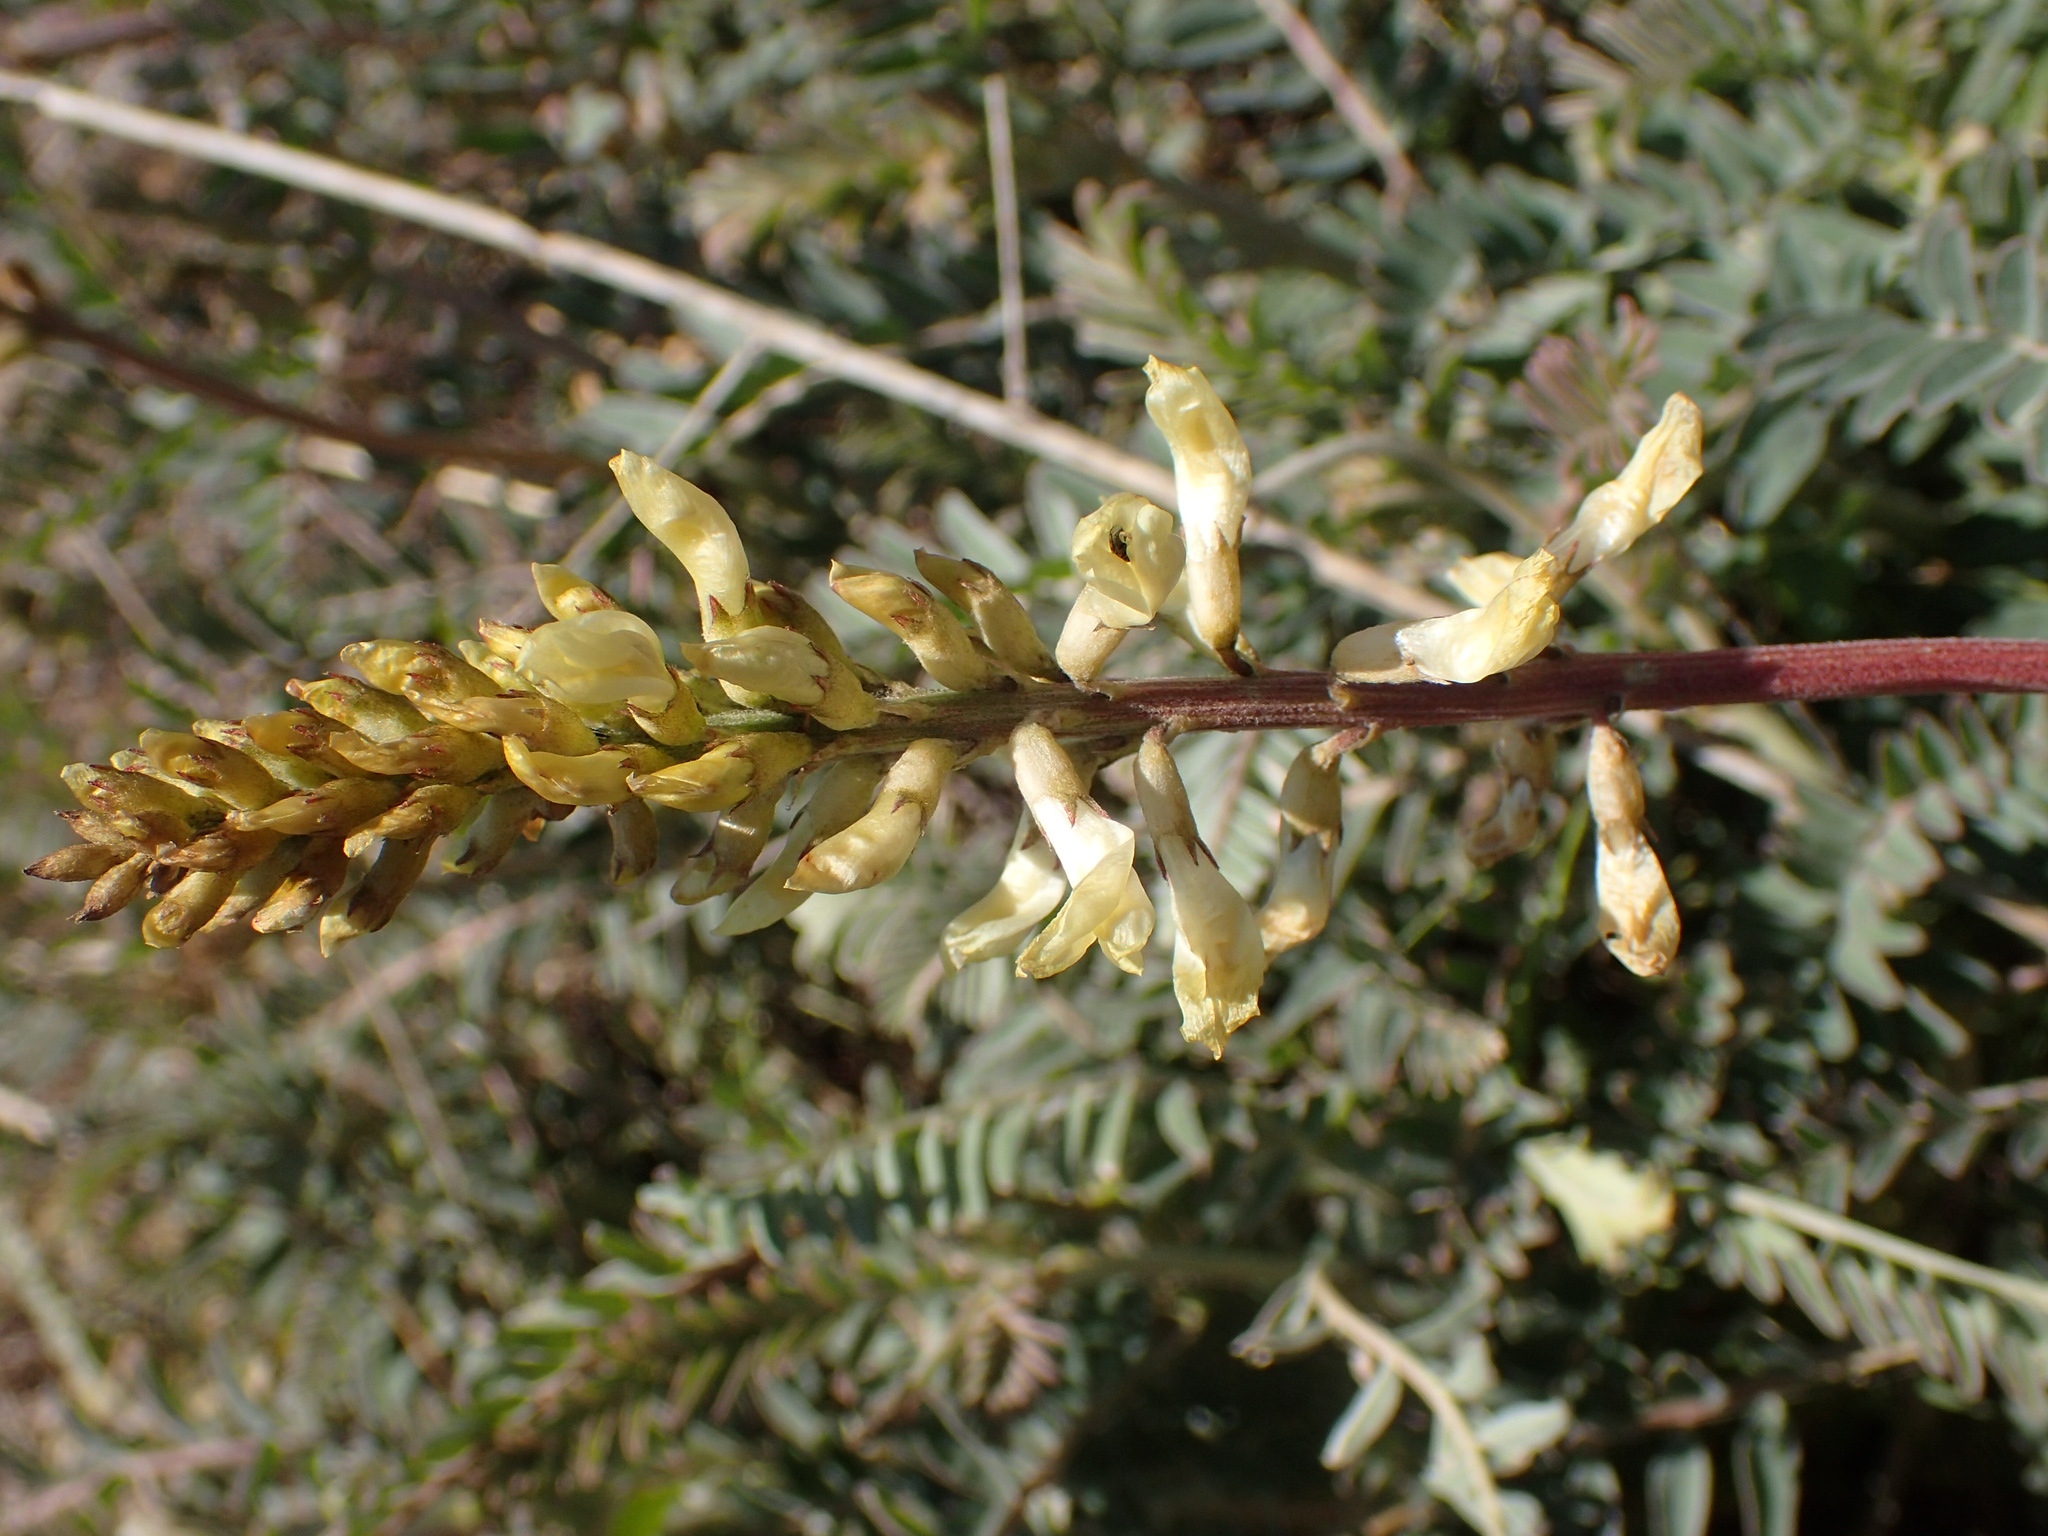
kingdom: Plantae
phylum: Tracheophyta
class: Magnoliopsida
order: Fabales
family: Fabaceae
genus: Astragalus
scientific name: Astragalus trichopodus
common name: Santa barbara milk-vetch
